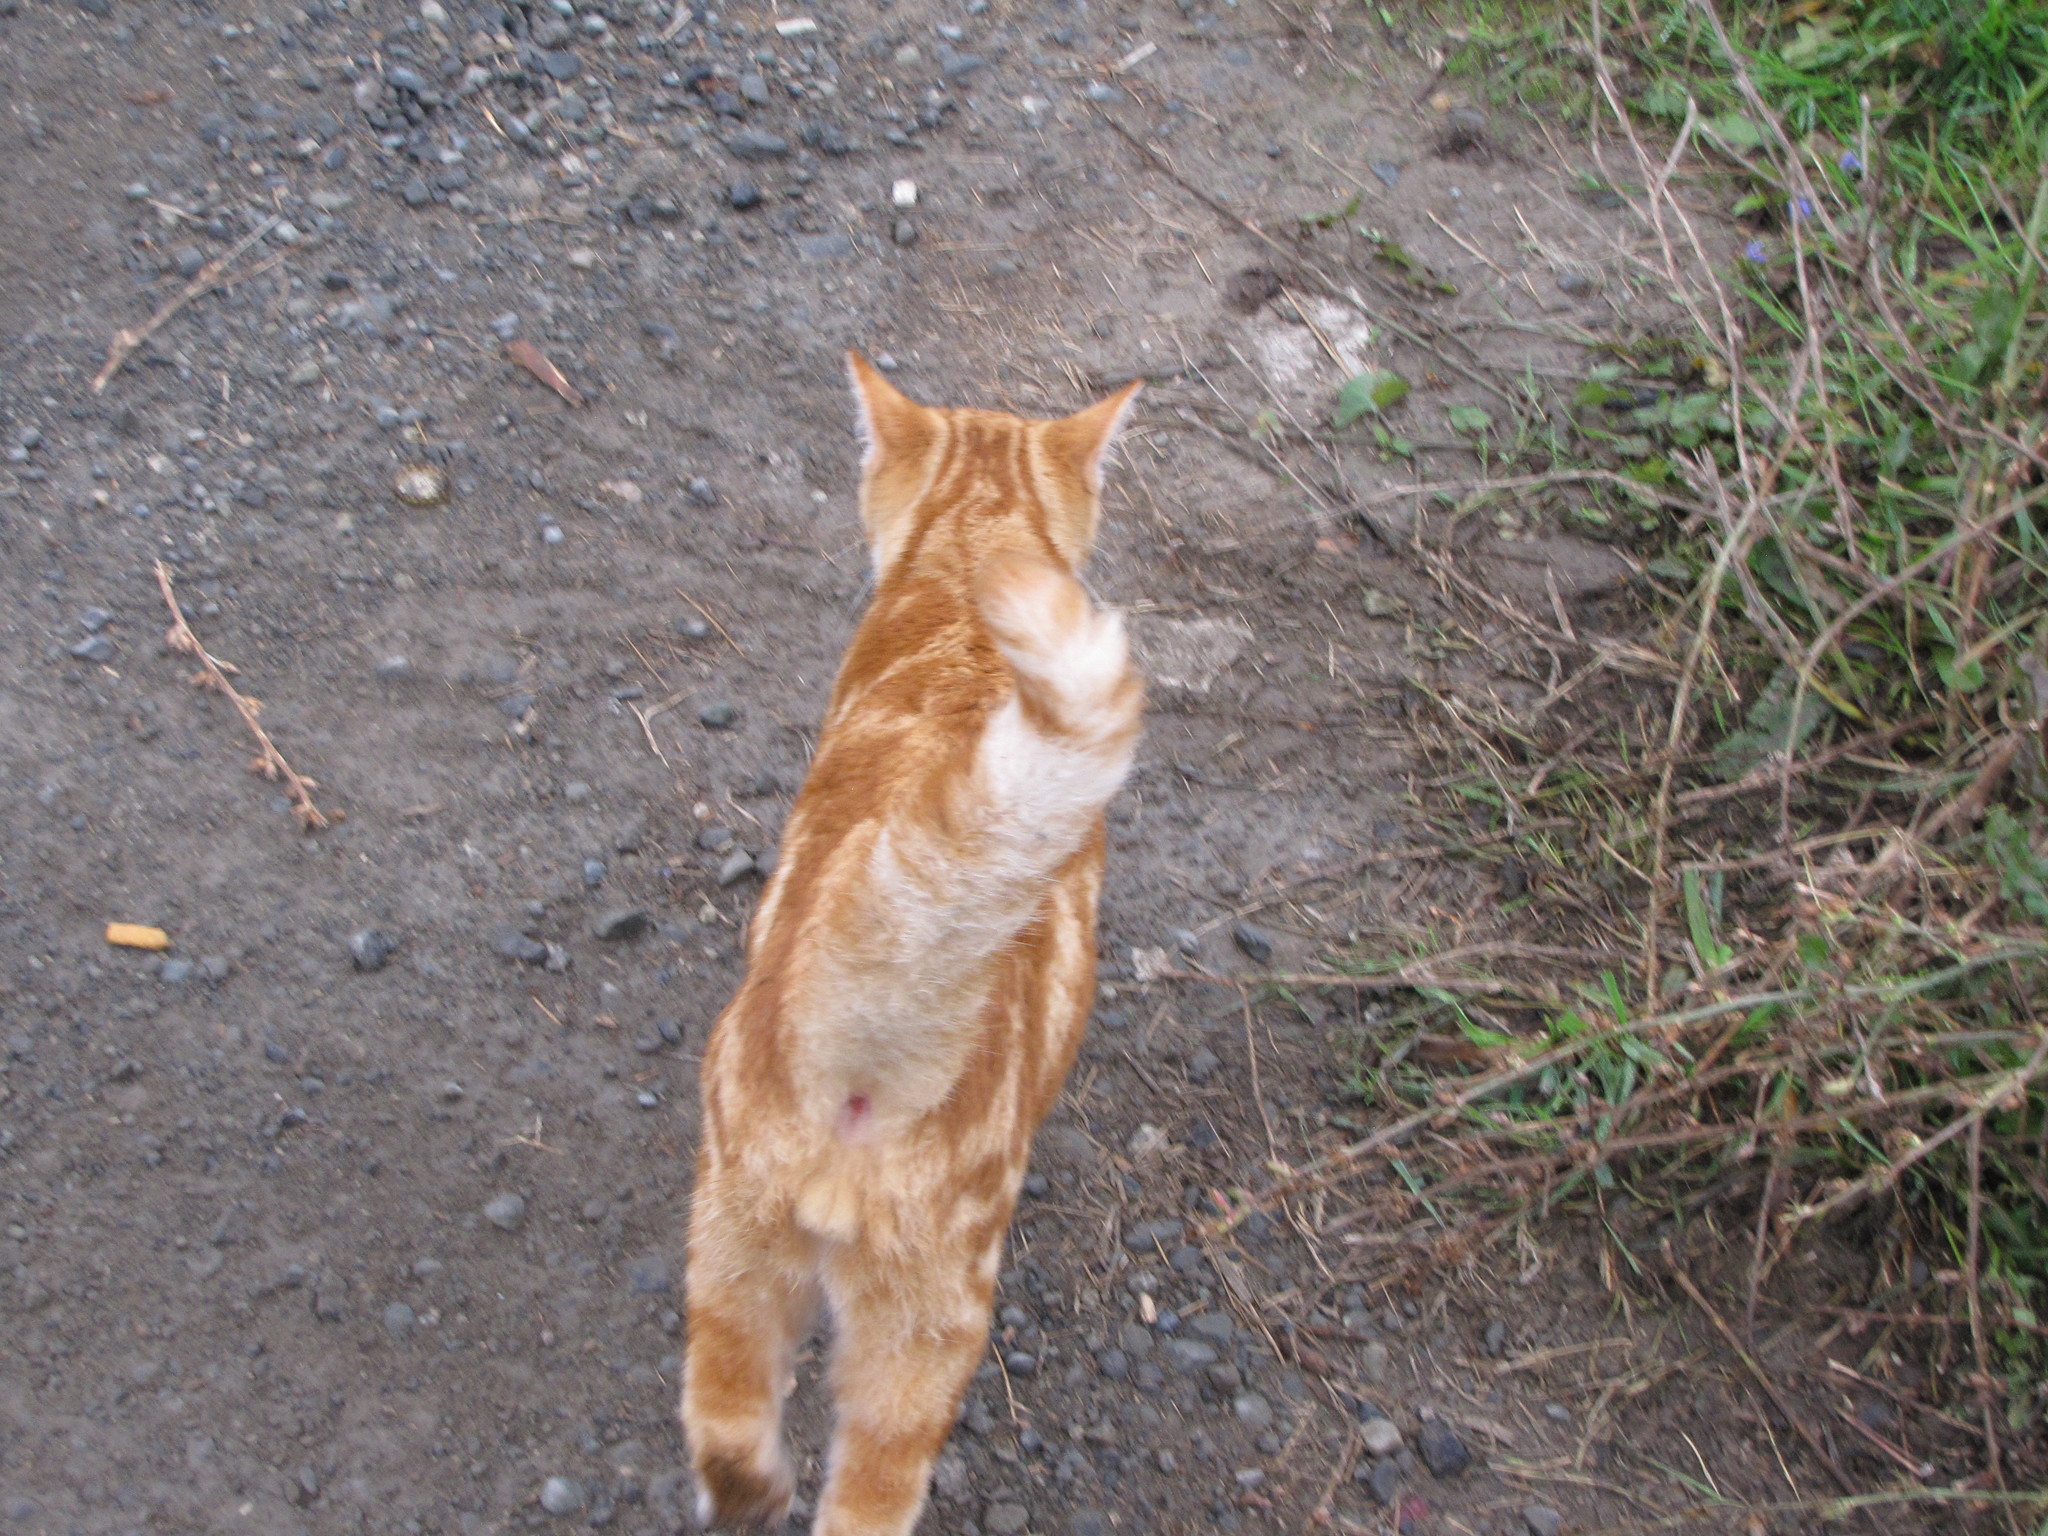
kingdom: Animalia
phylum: Chordata
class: Mammalia
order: Carnivora
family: Felidae
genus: Felis
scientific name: Felis catus
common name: Domestic cat
